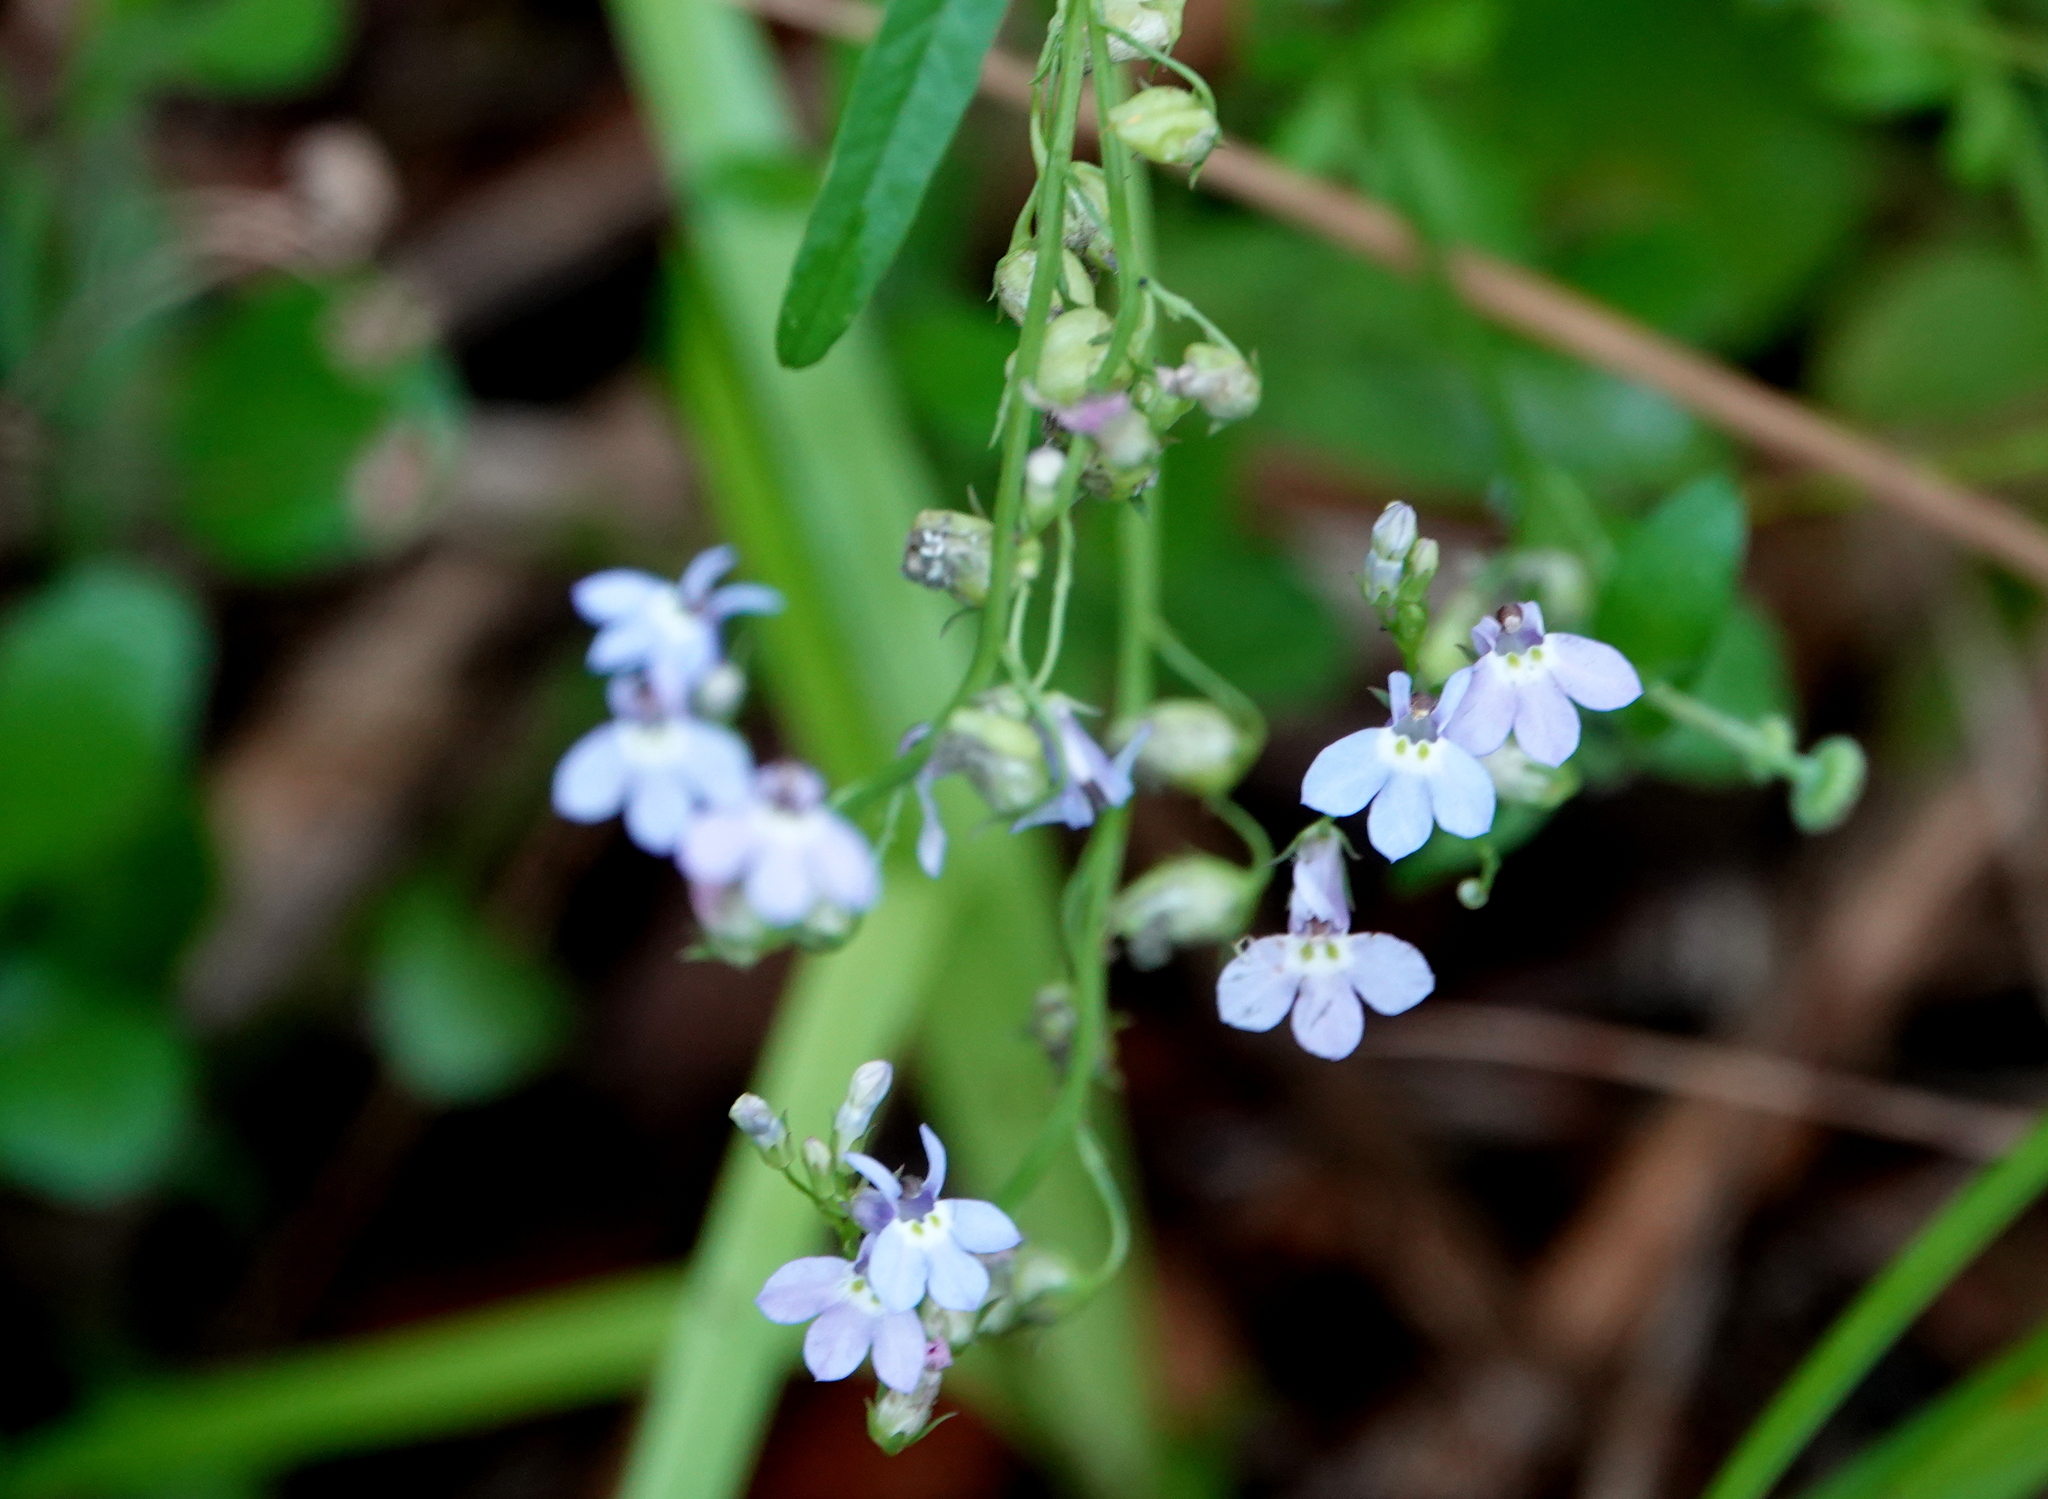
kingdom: Plantae
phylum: Tracheophyta
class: Magnoliopsida
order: Asterales
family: Campanulaceae
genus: Lobelia
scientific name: Lobelia homophylla
